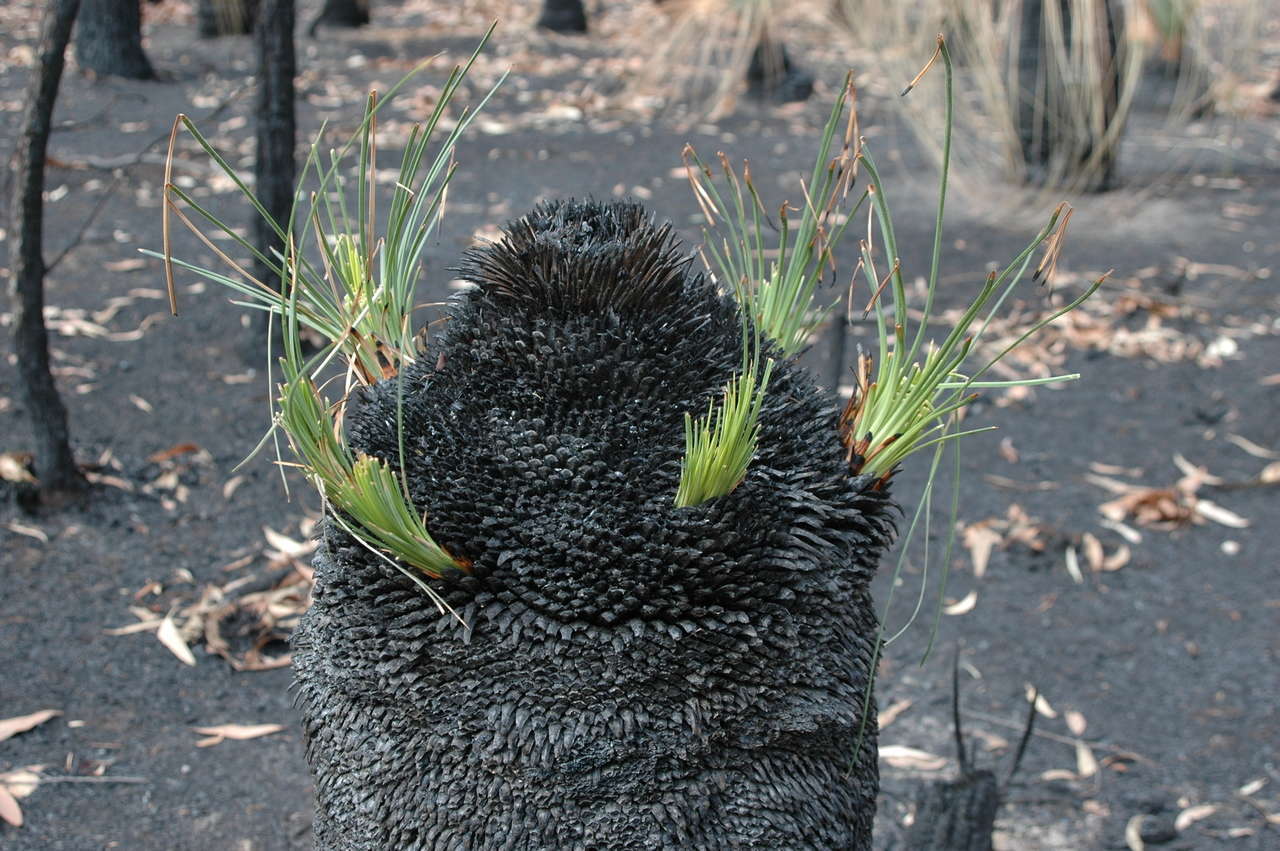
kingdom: Plantae
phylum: Tracheophyta
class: Liliopsida
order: Asparagales
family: Asphodelaceae
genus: Xanthorrhoea
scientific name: Xanthorrhoea australis
